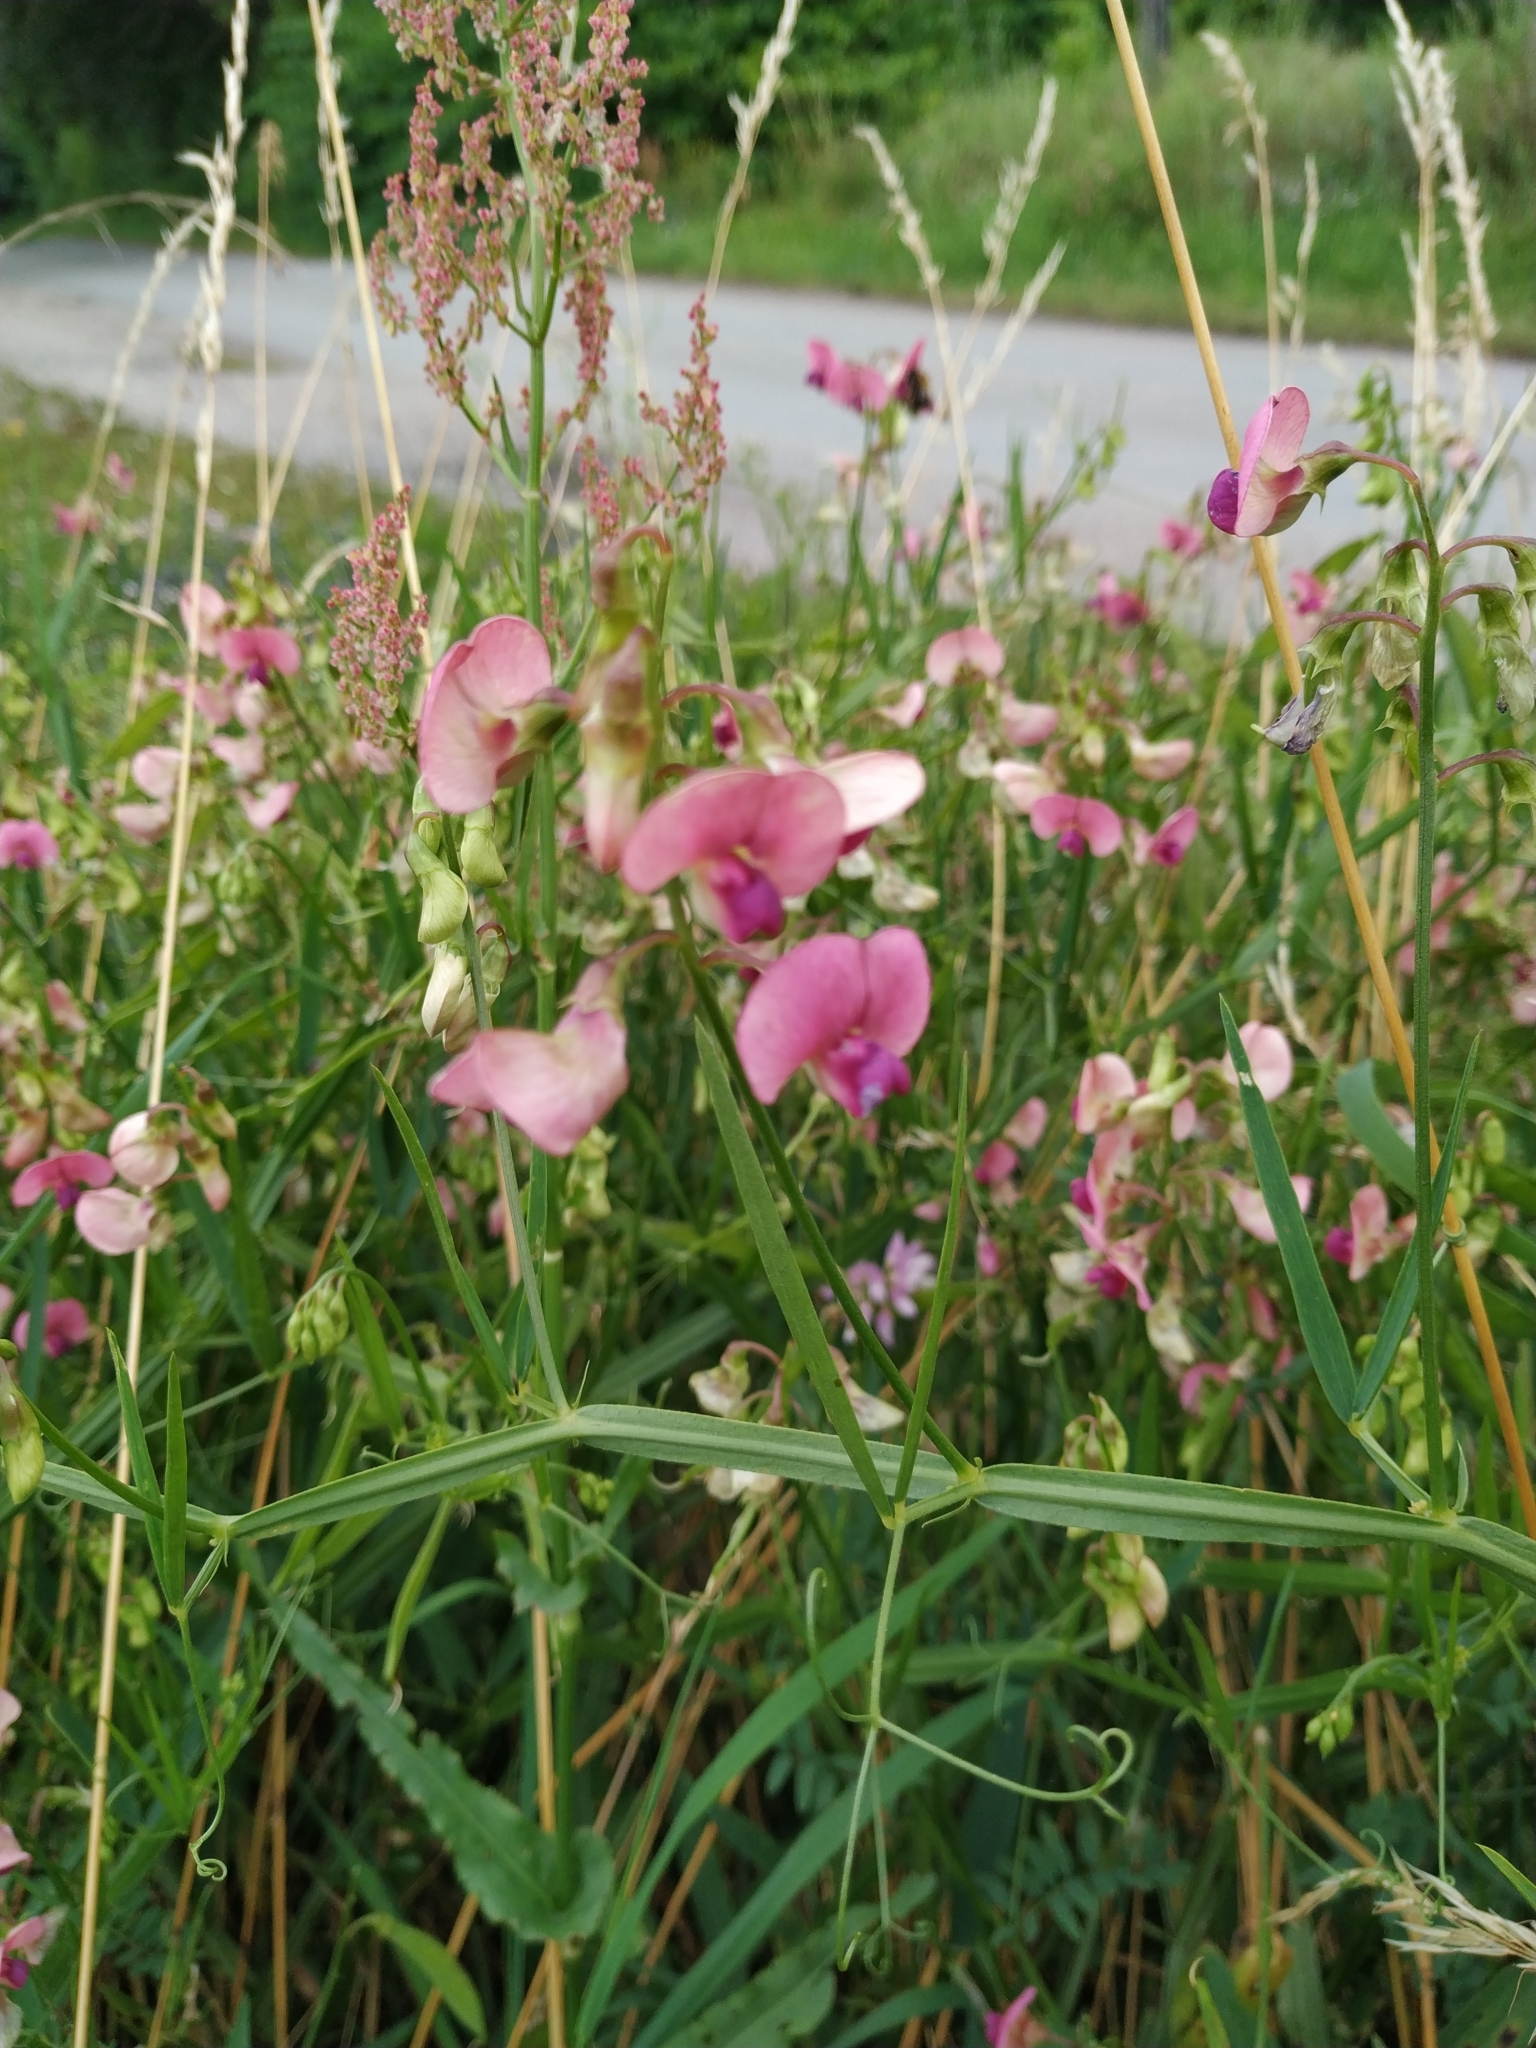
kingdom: Plantae
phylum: Tracheophyta
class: Magnoliopsida
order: Fabales
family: Fabaceae
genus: Lathyrus
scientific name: Lathyrus sylvestris
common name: Flat pea
